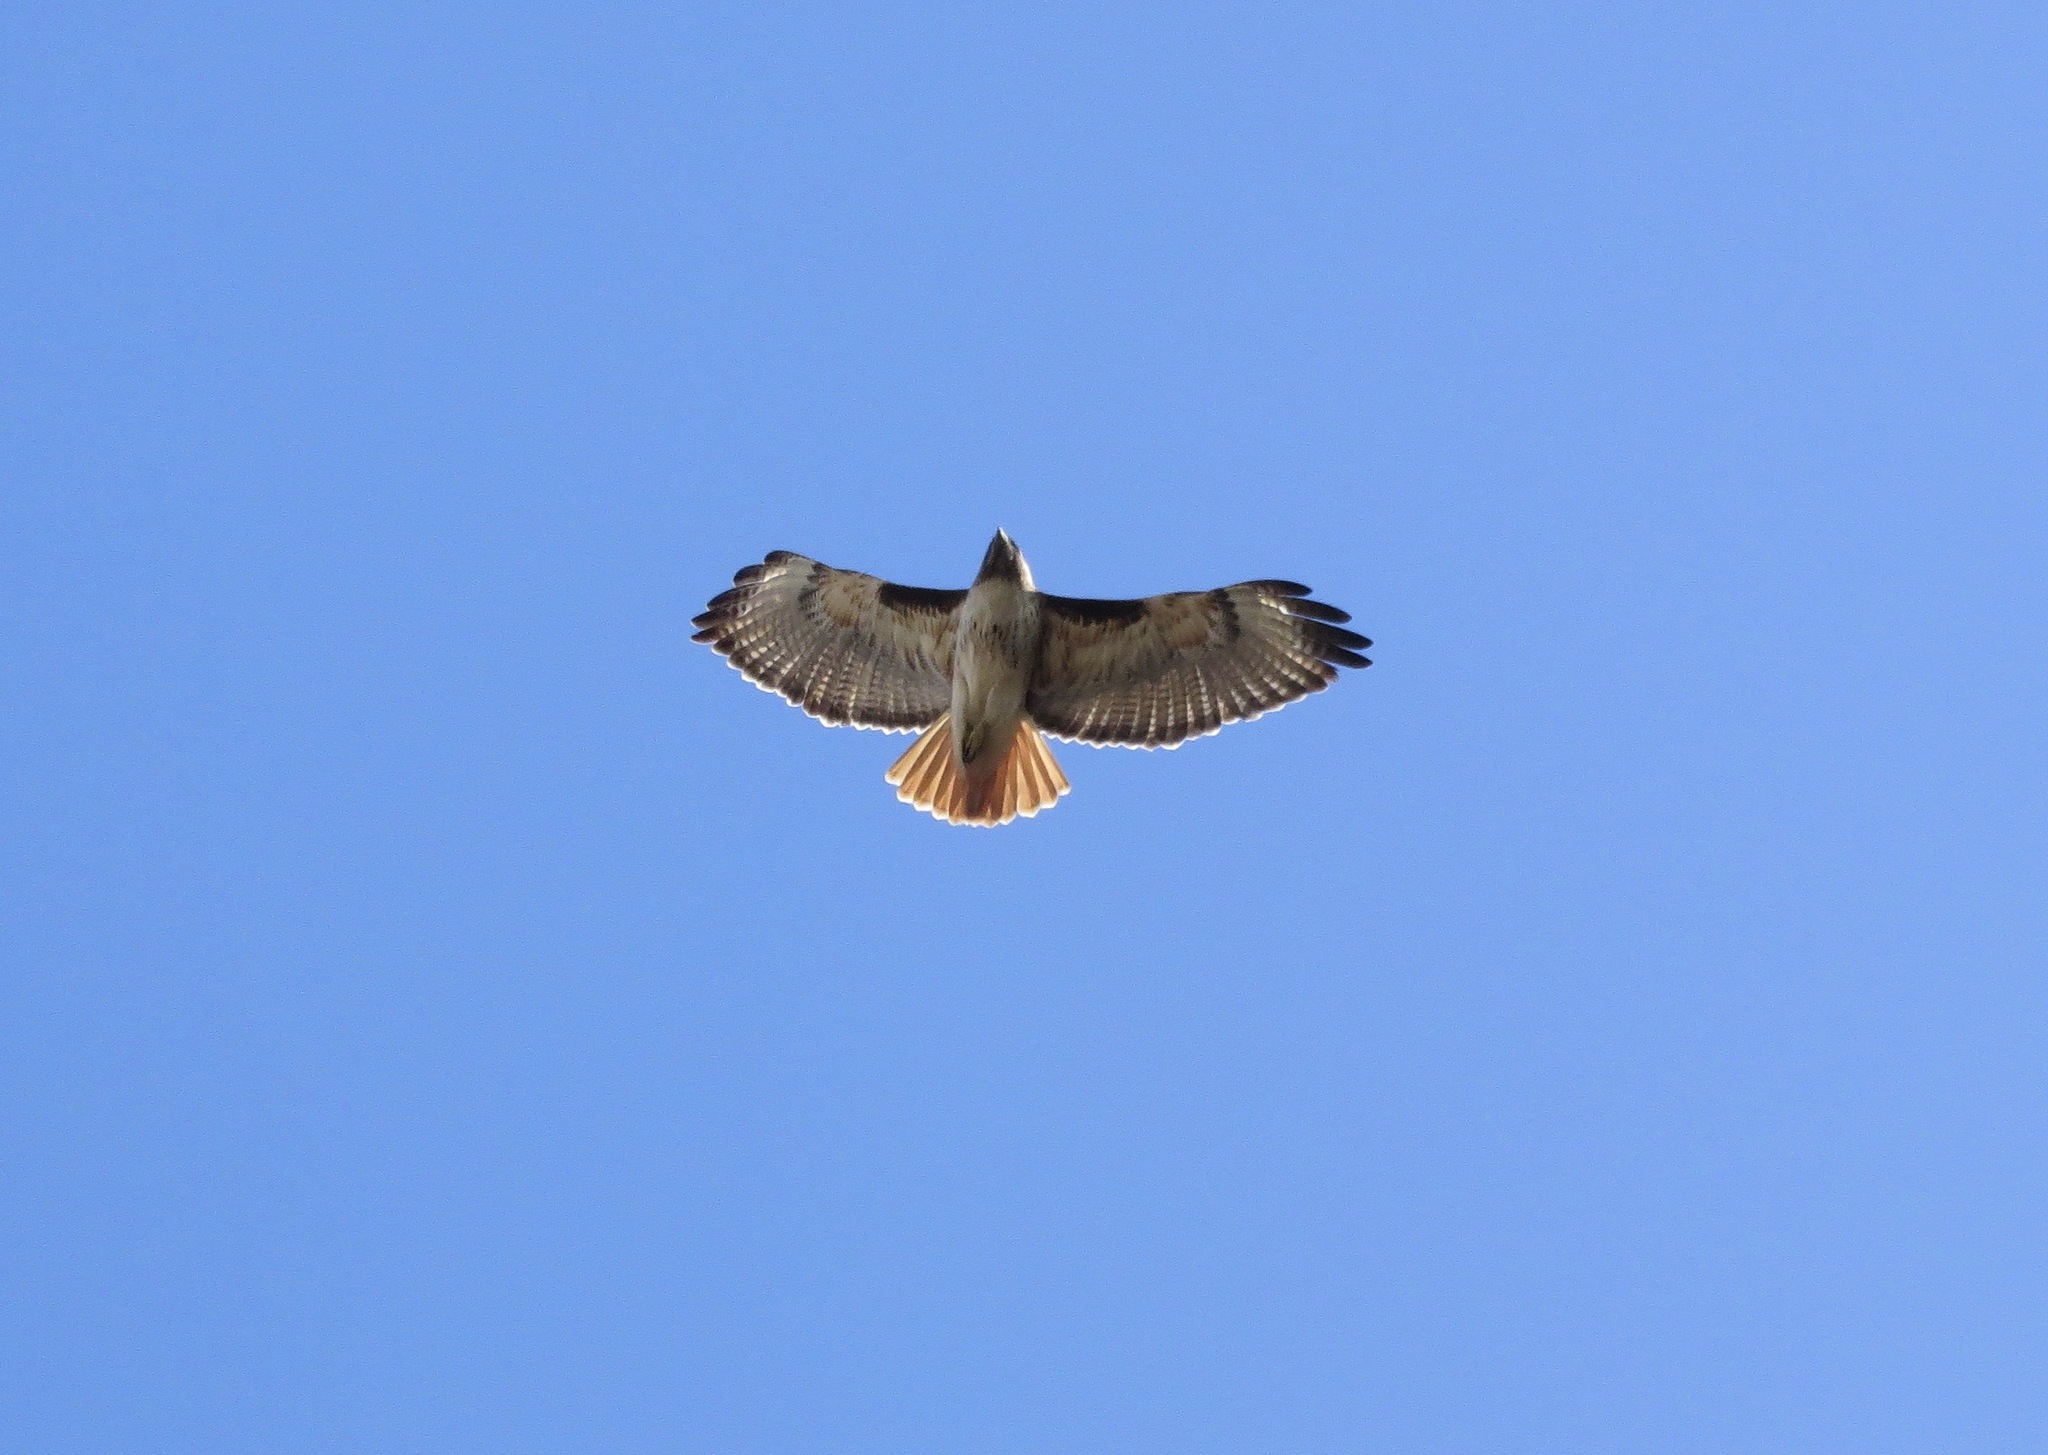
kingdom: Animalia
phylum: Chordata
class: Aves
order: Accipitriformes
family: Accipitridae
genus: Buteo
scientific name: Buteo jamaicensis
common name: Red-tailed hawk
